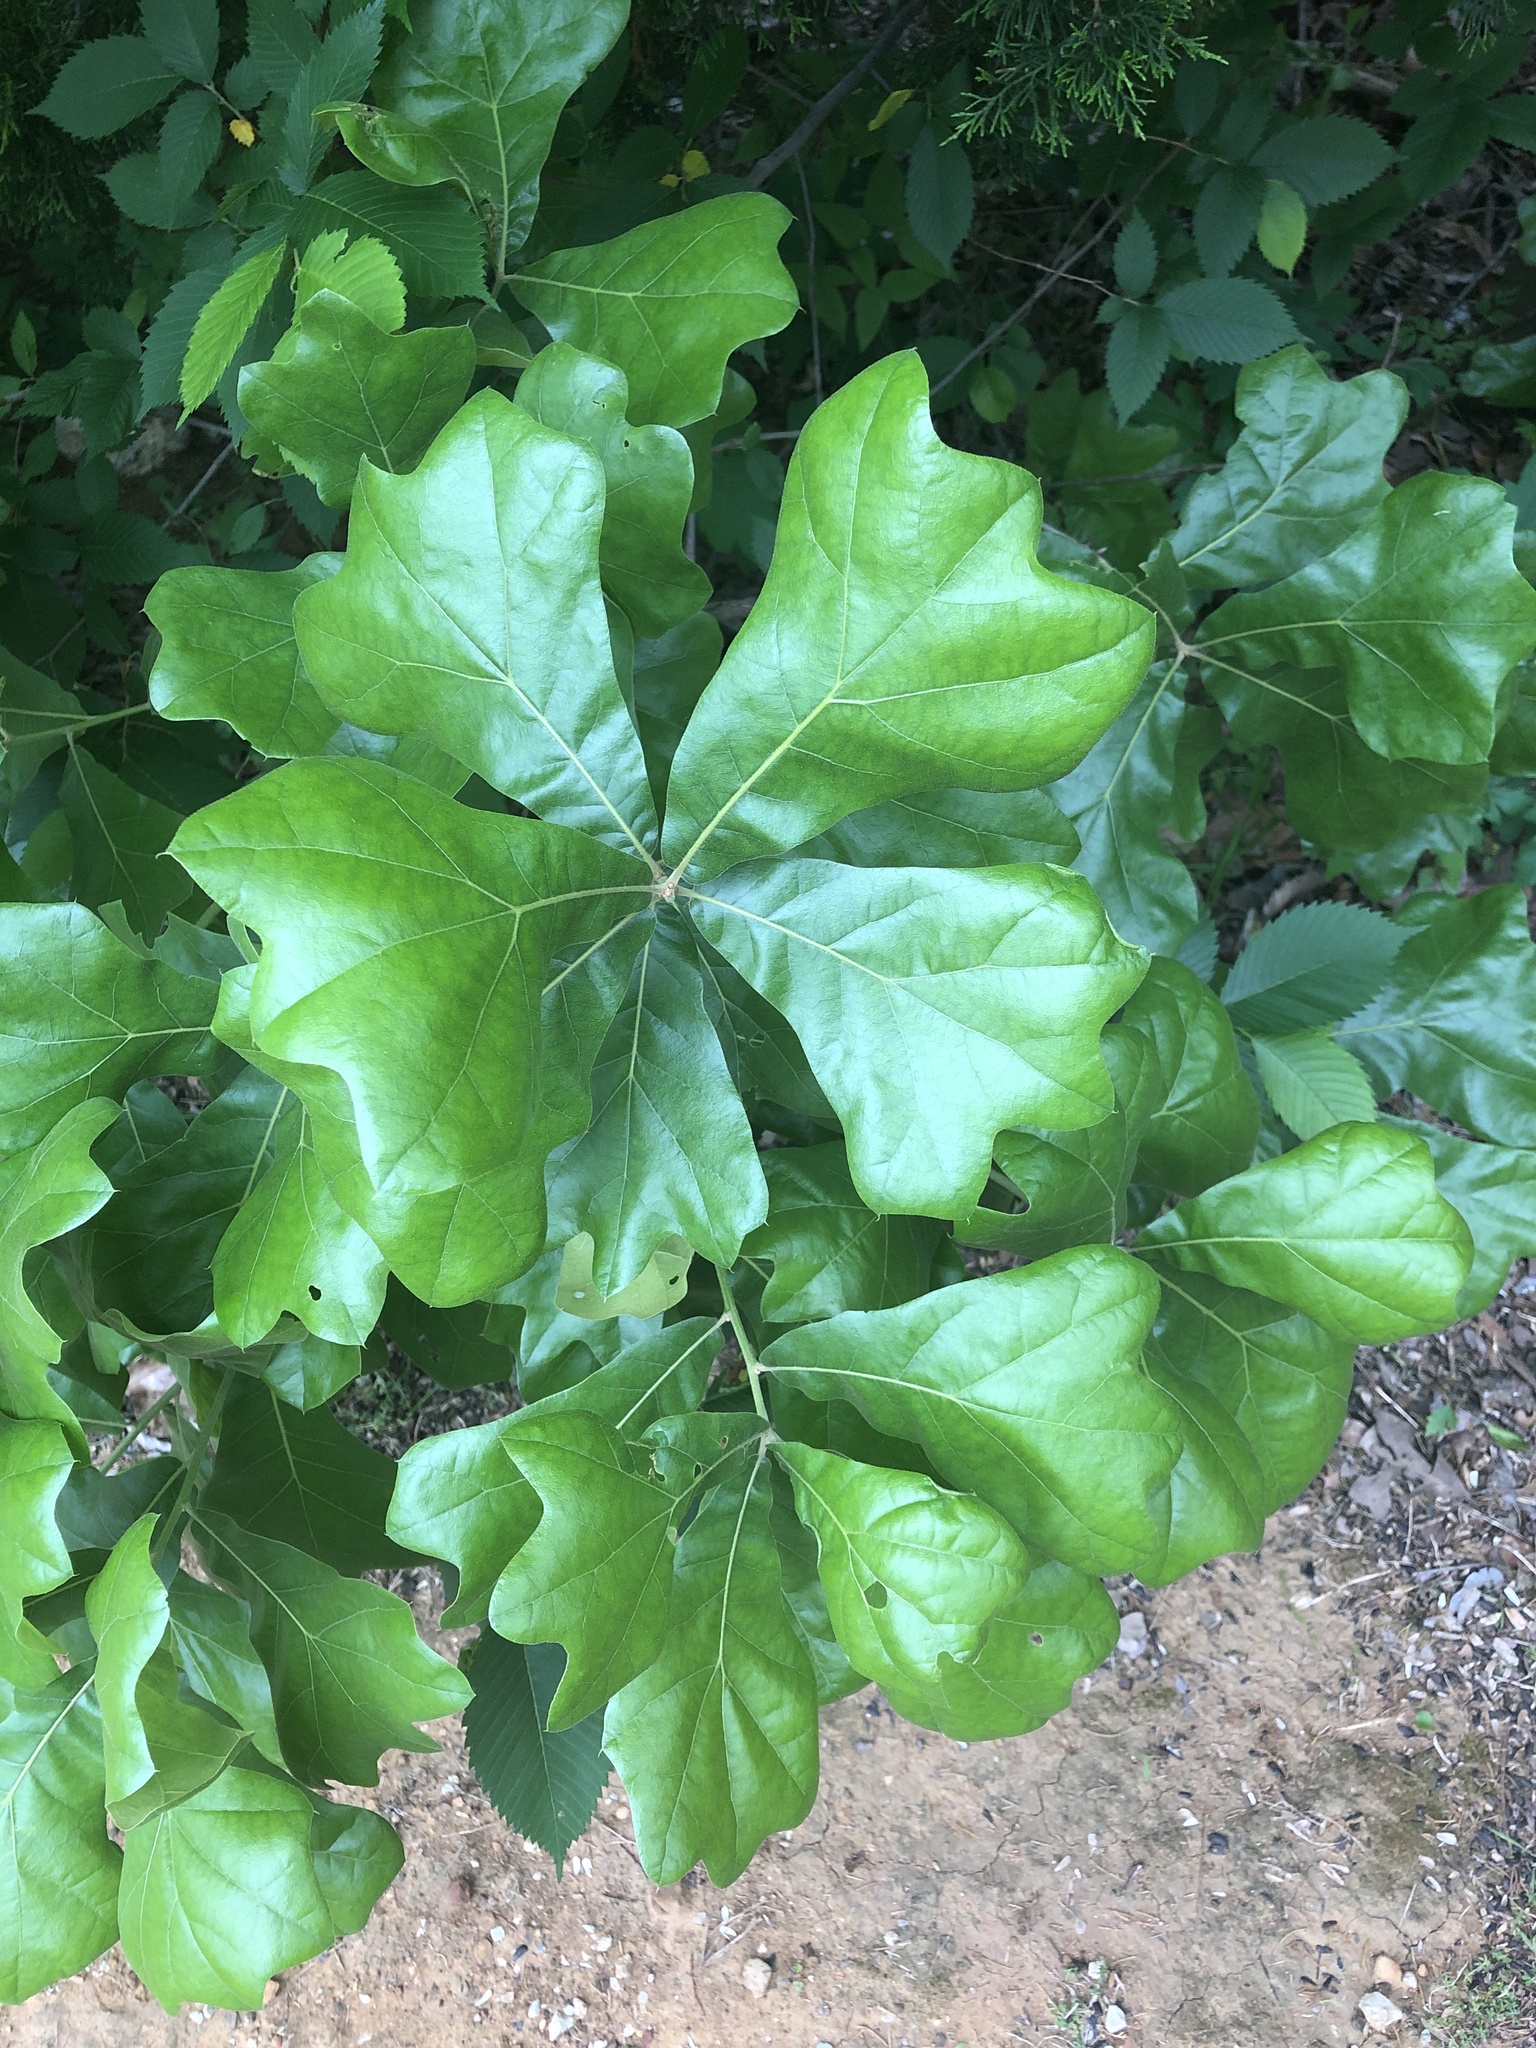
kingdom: Plantae
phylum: Tracheophyta
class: Magnoliopsida
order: Fagales
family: Fagaceae
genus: Quercus
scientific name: Quercus marilandica
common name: Blackjack oak
